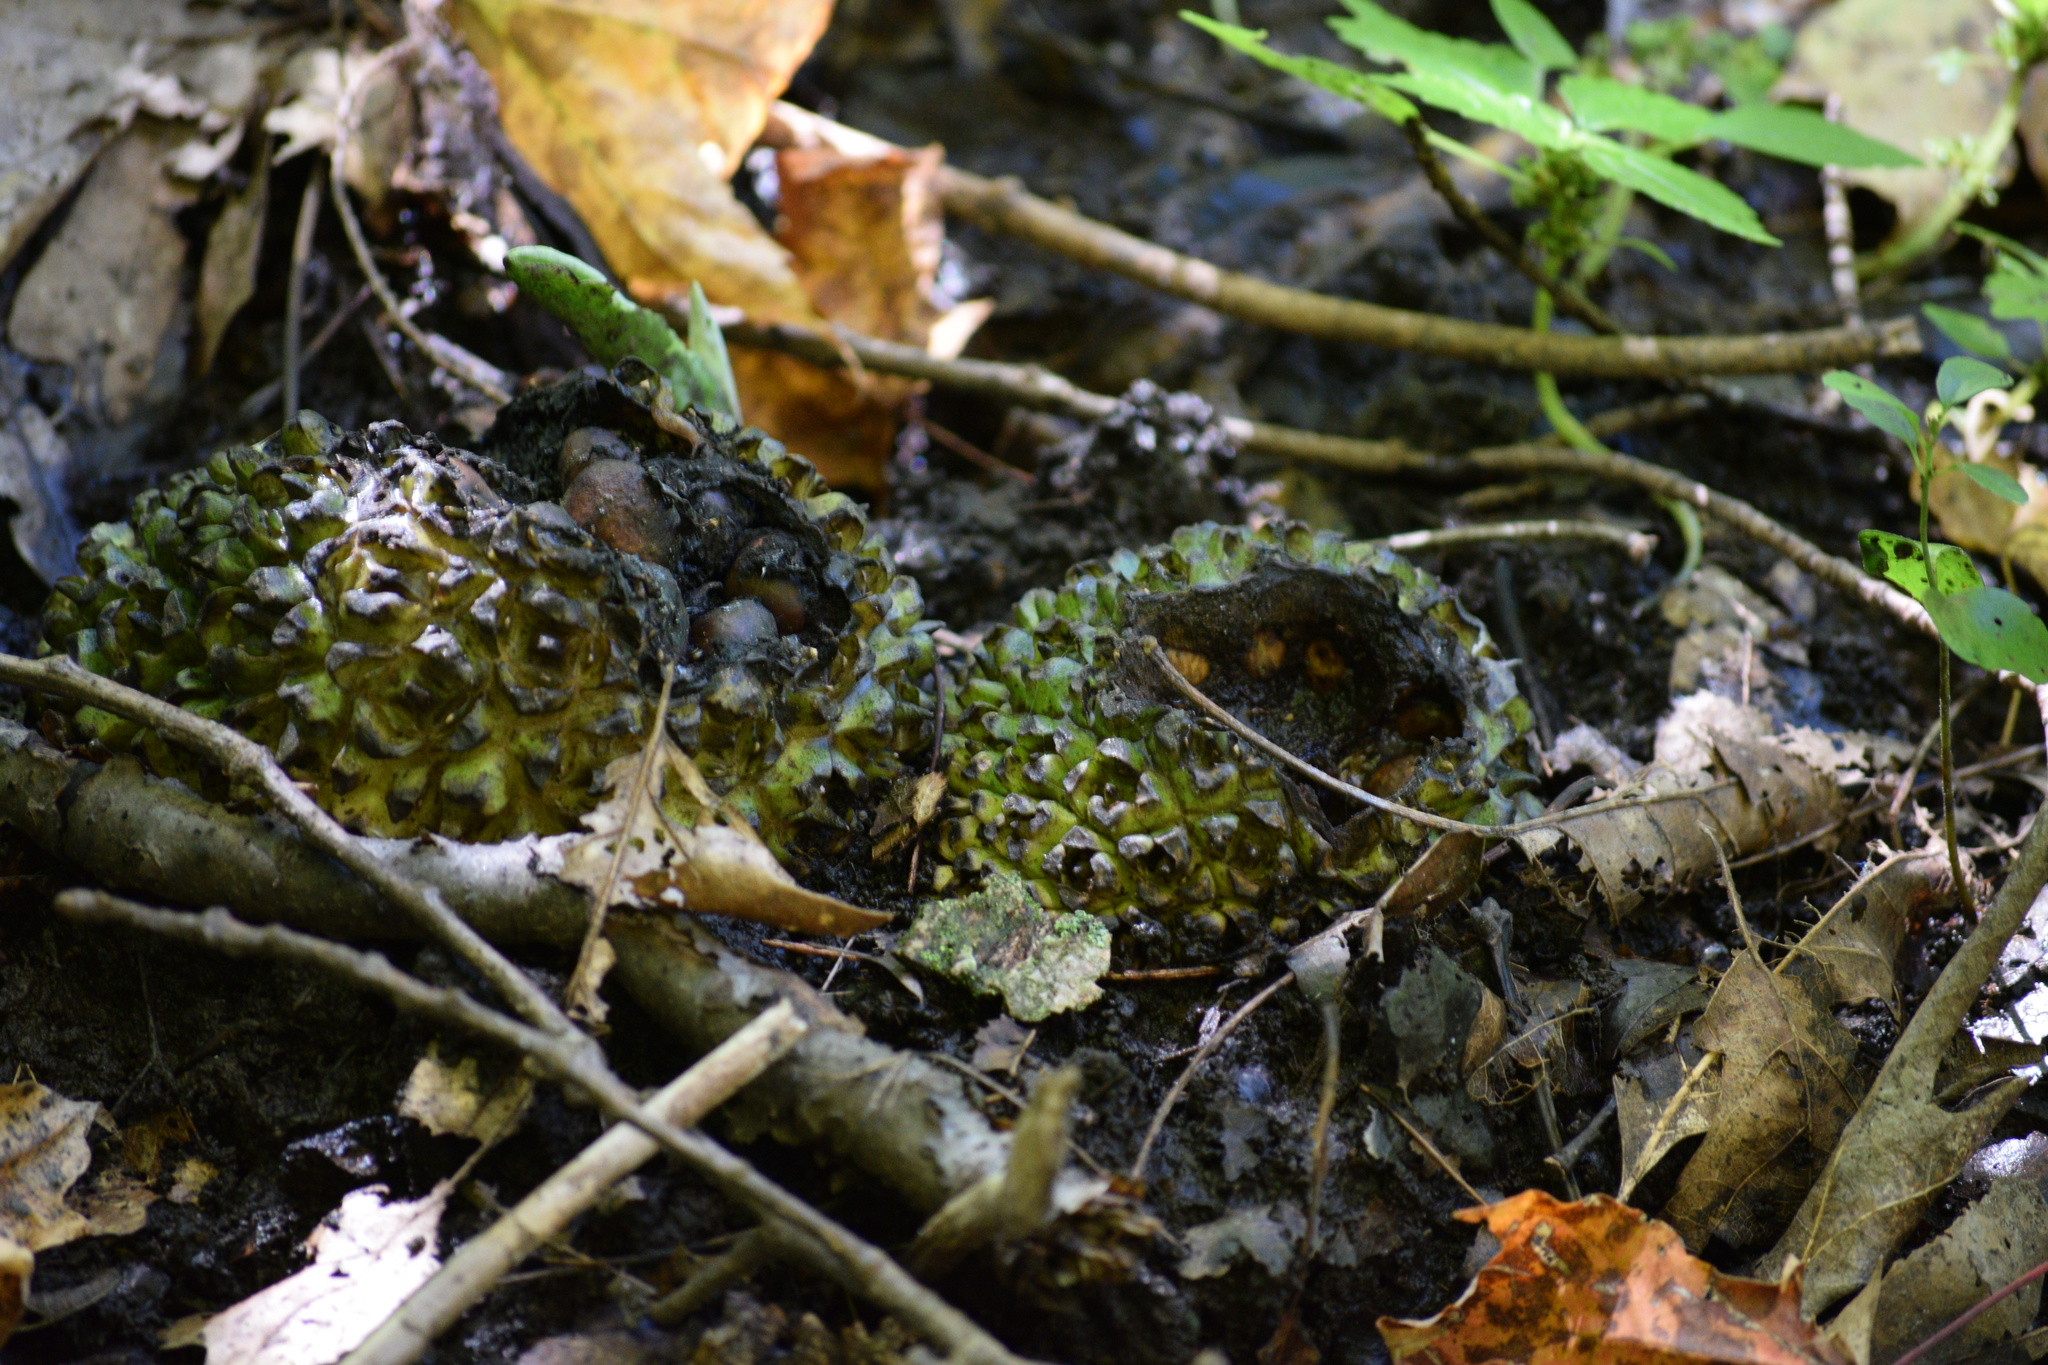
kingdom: Plantae
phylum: Tracheophyta
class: Liliopsida
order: Alismatales
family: Araceae
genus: Symplocarpus
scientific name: Symplocarpus foetidus
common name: Eastern skunk cabbage
